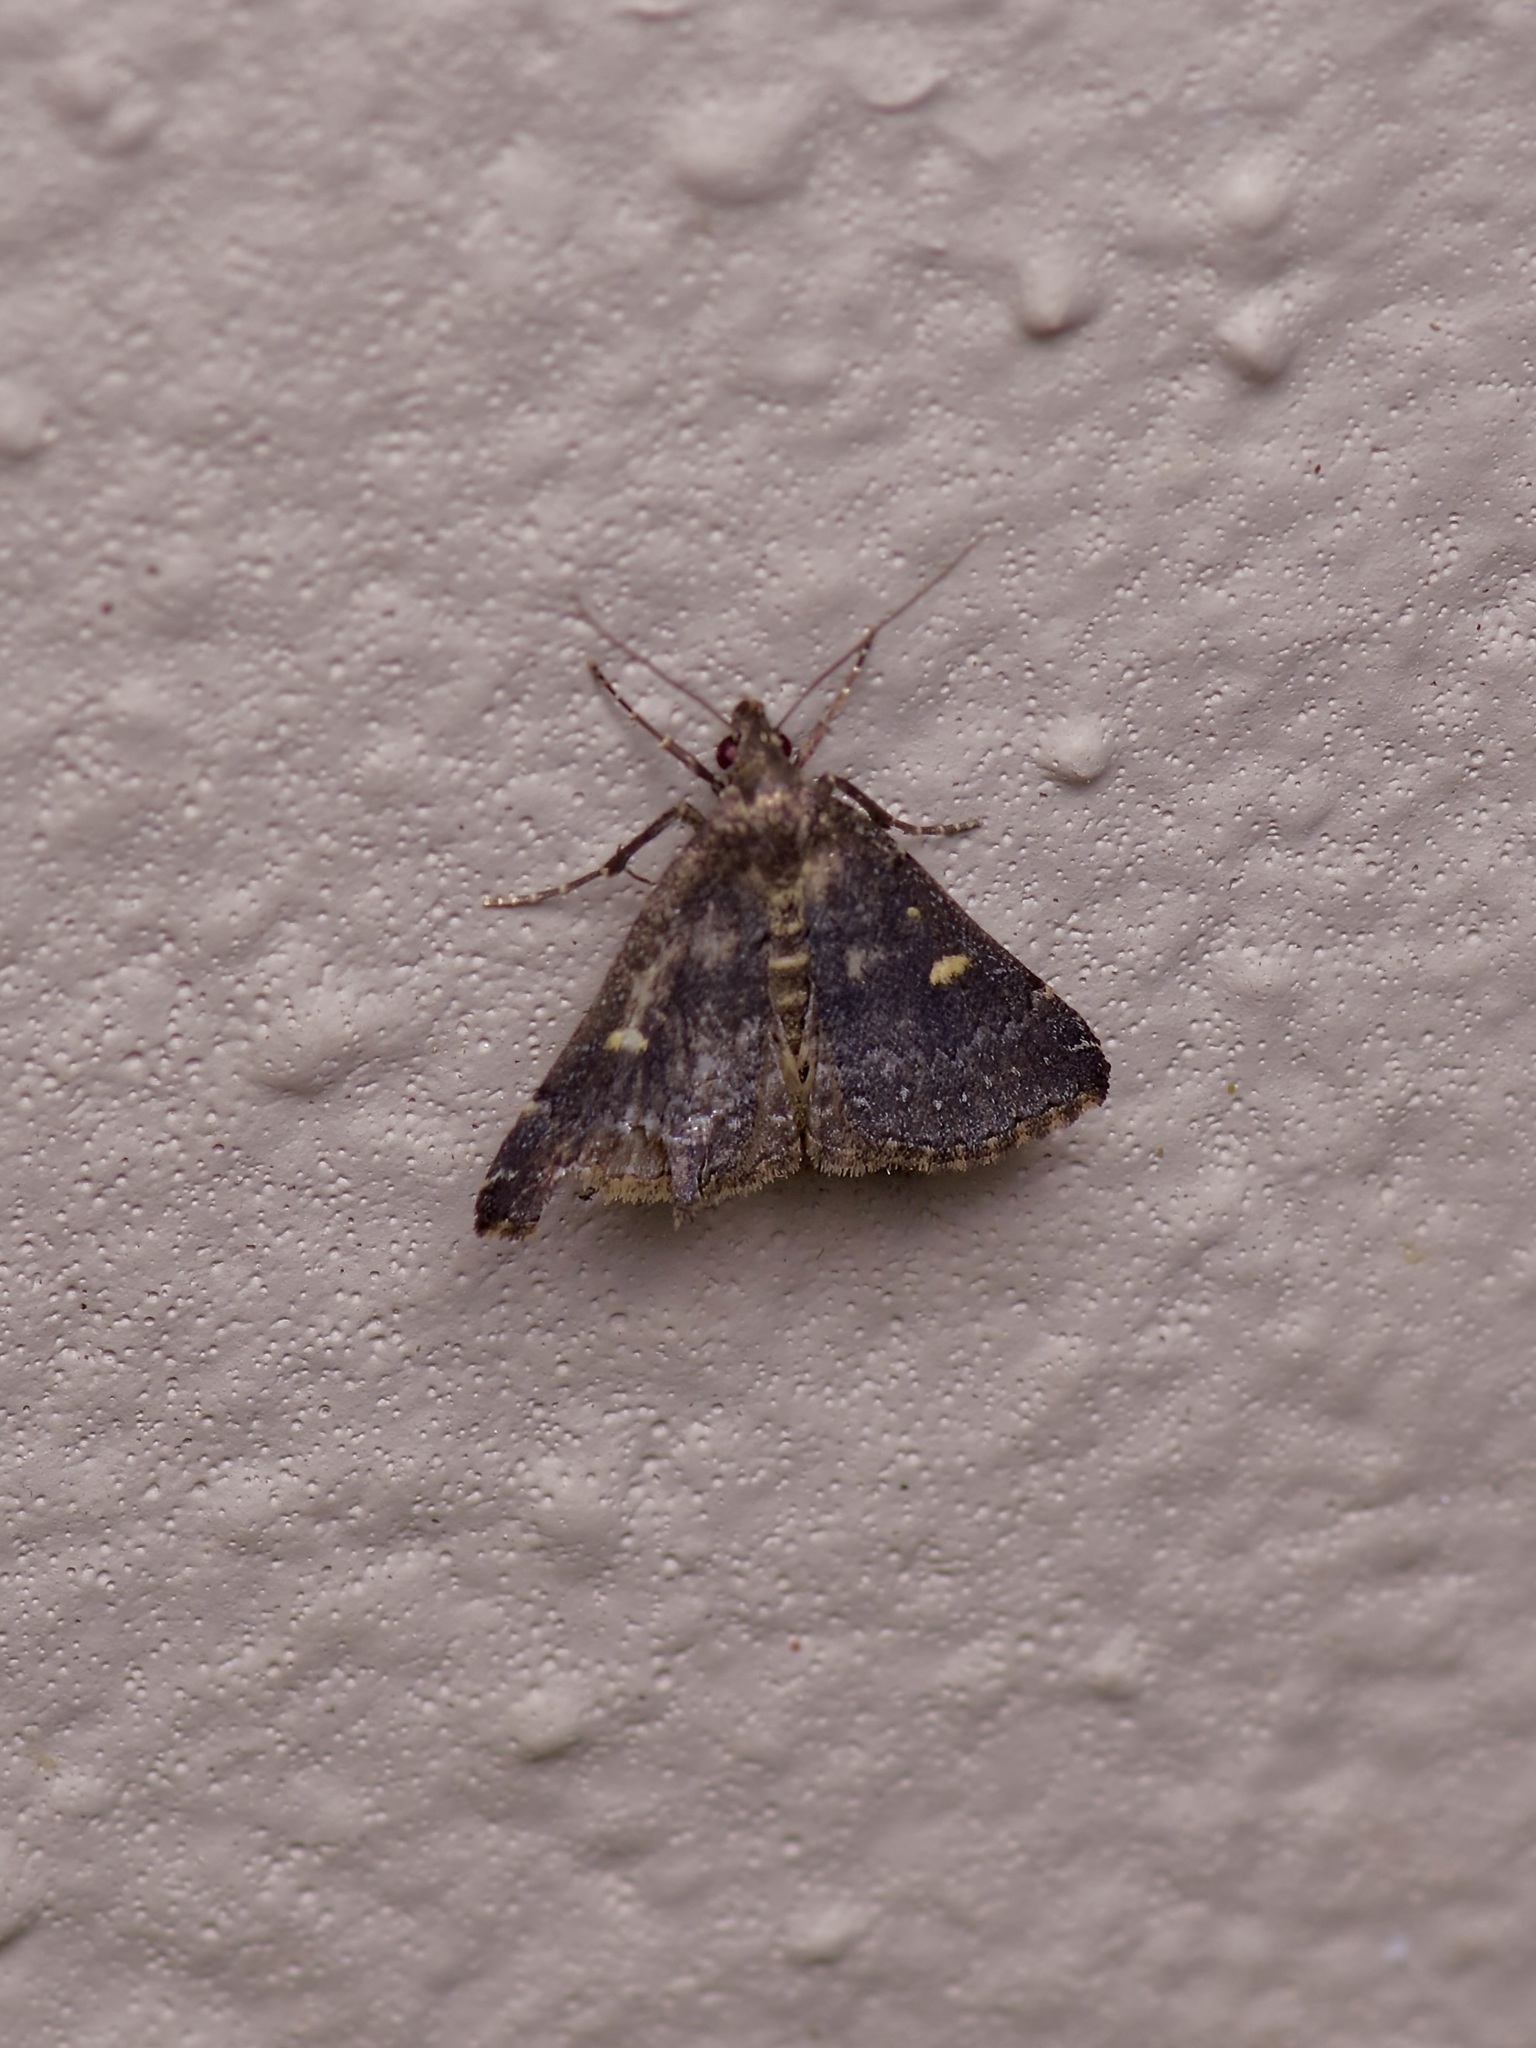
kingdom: Animalia
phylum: Arthropoda
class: Insecta
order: Lepidoptera
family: Erebidae
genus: Tetanolita
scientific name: Tetanolita mynesalis
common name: Smoky tetanolita moth
